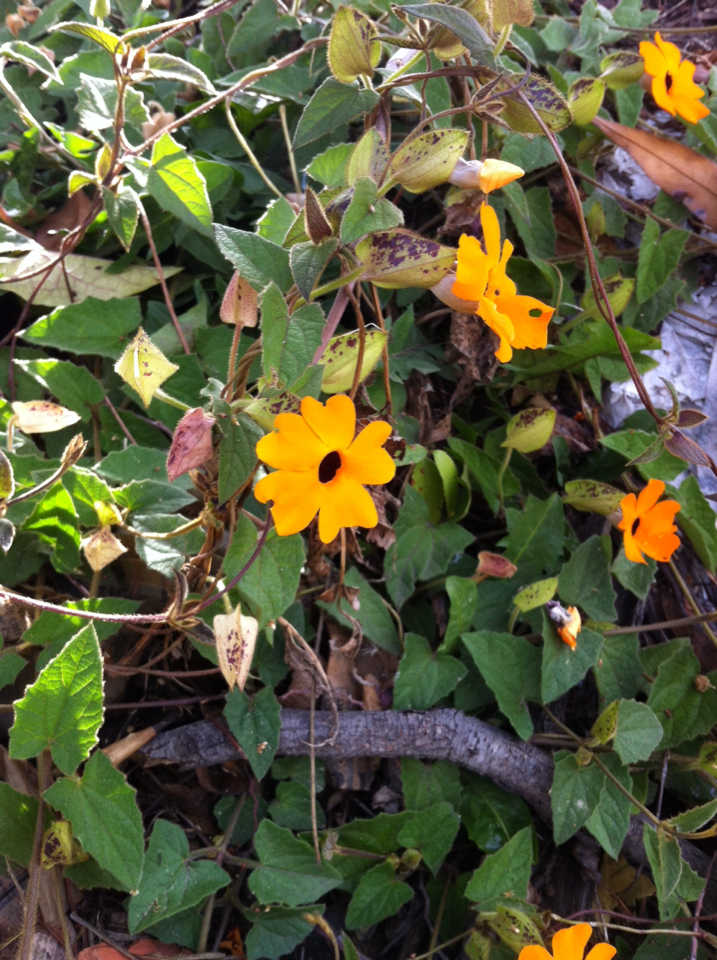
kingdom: Plantae
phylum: Tracheophyta
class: Magnoliopsida
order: Lamiales
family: Acanthaceae
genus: Thunbergia
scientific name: Thunbergia alata
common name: Blackeyed susan vine
